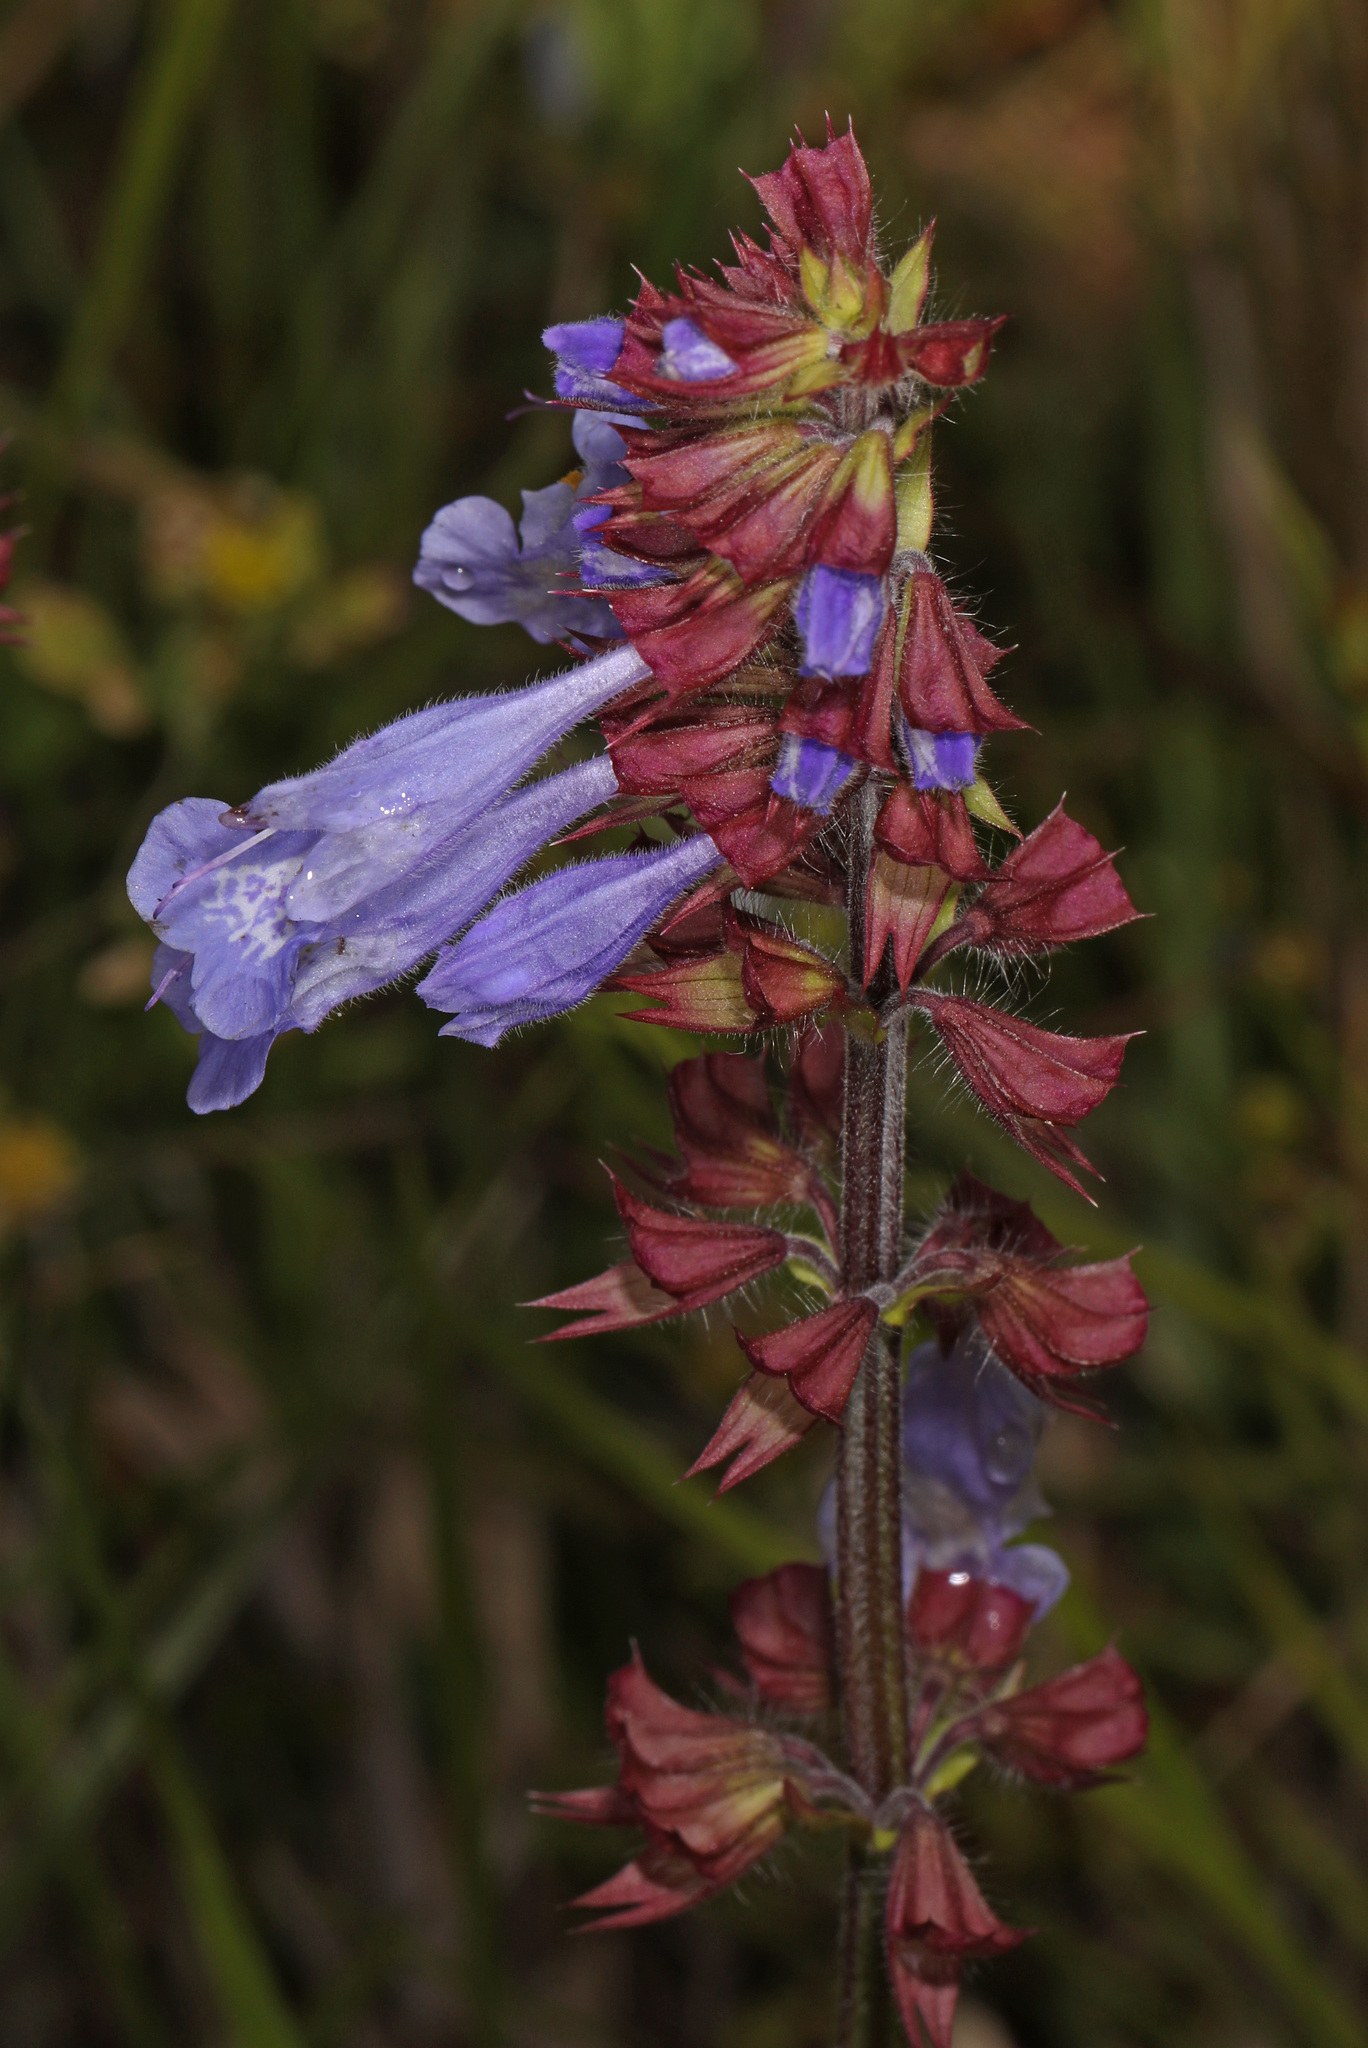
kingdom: Plantae
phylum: Tracheophyta
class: Magnoliopsida
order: Lamiales
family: Lamiaceae
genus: Salvia
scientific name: Salvia lyrata
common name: Cancerweed
